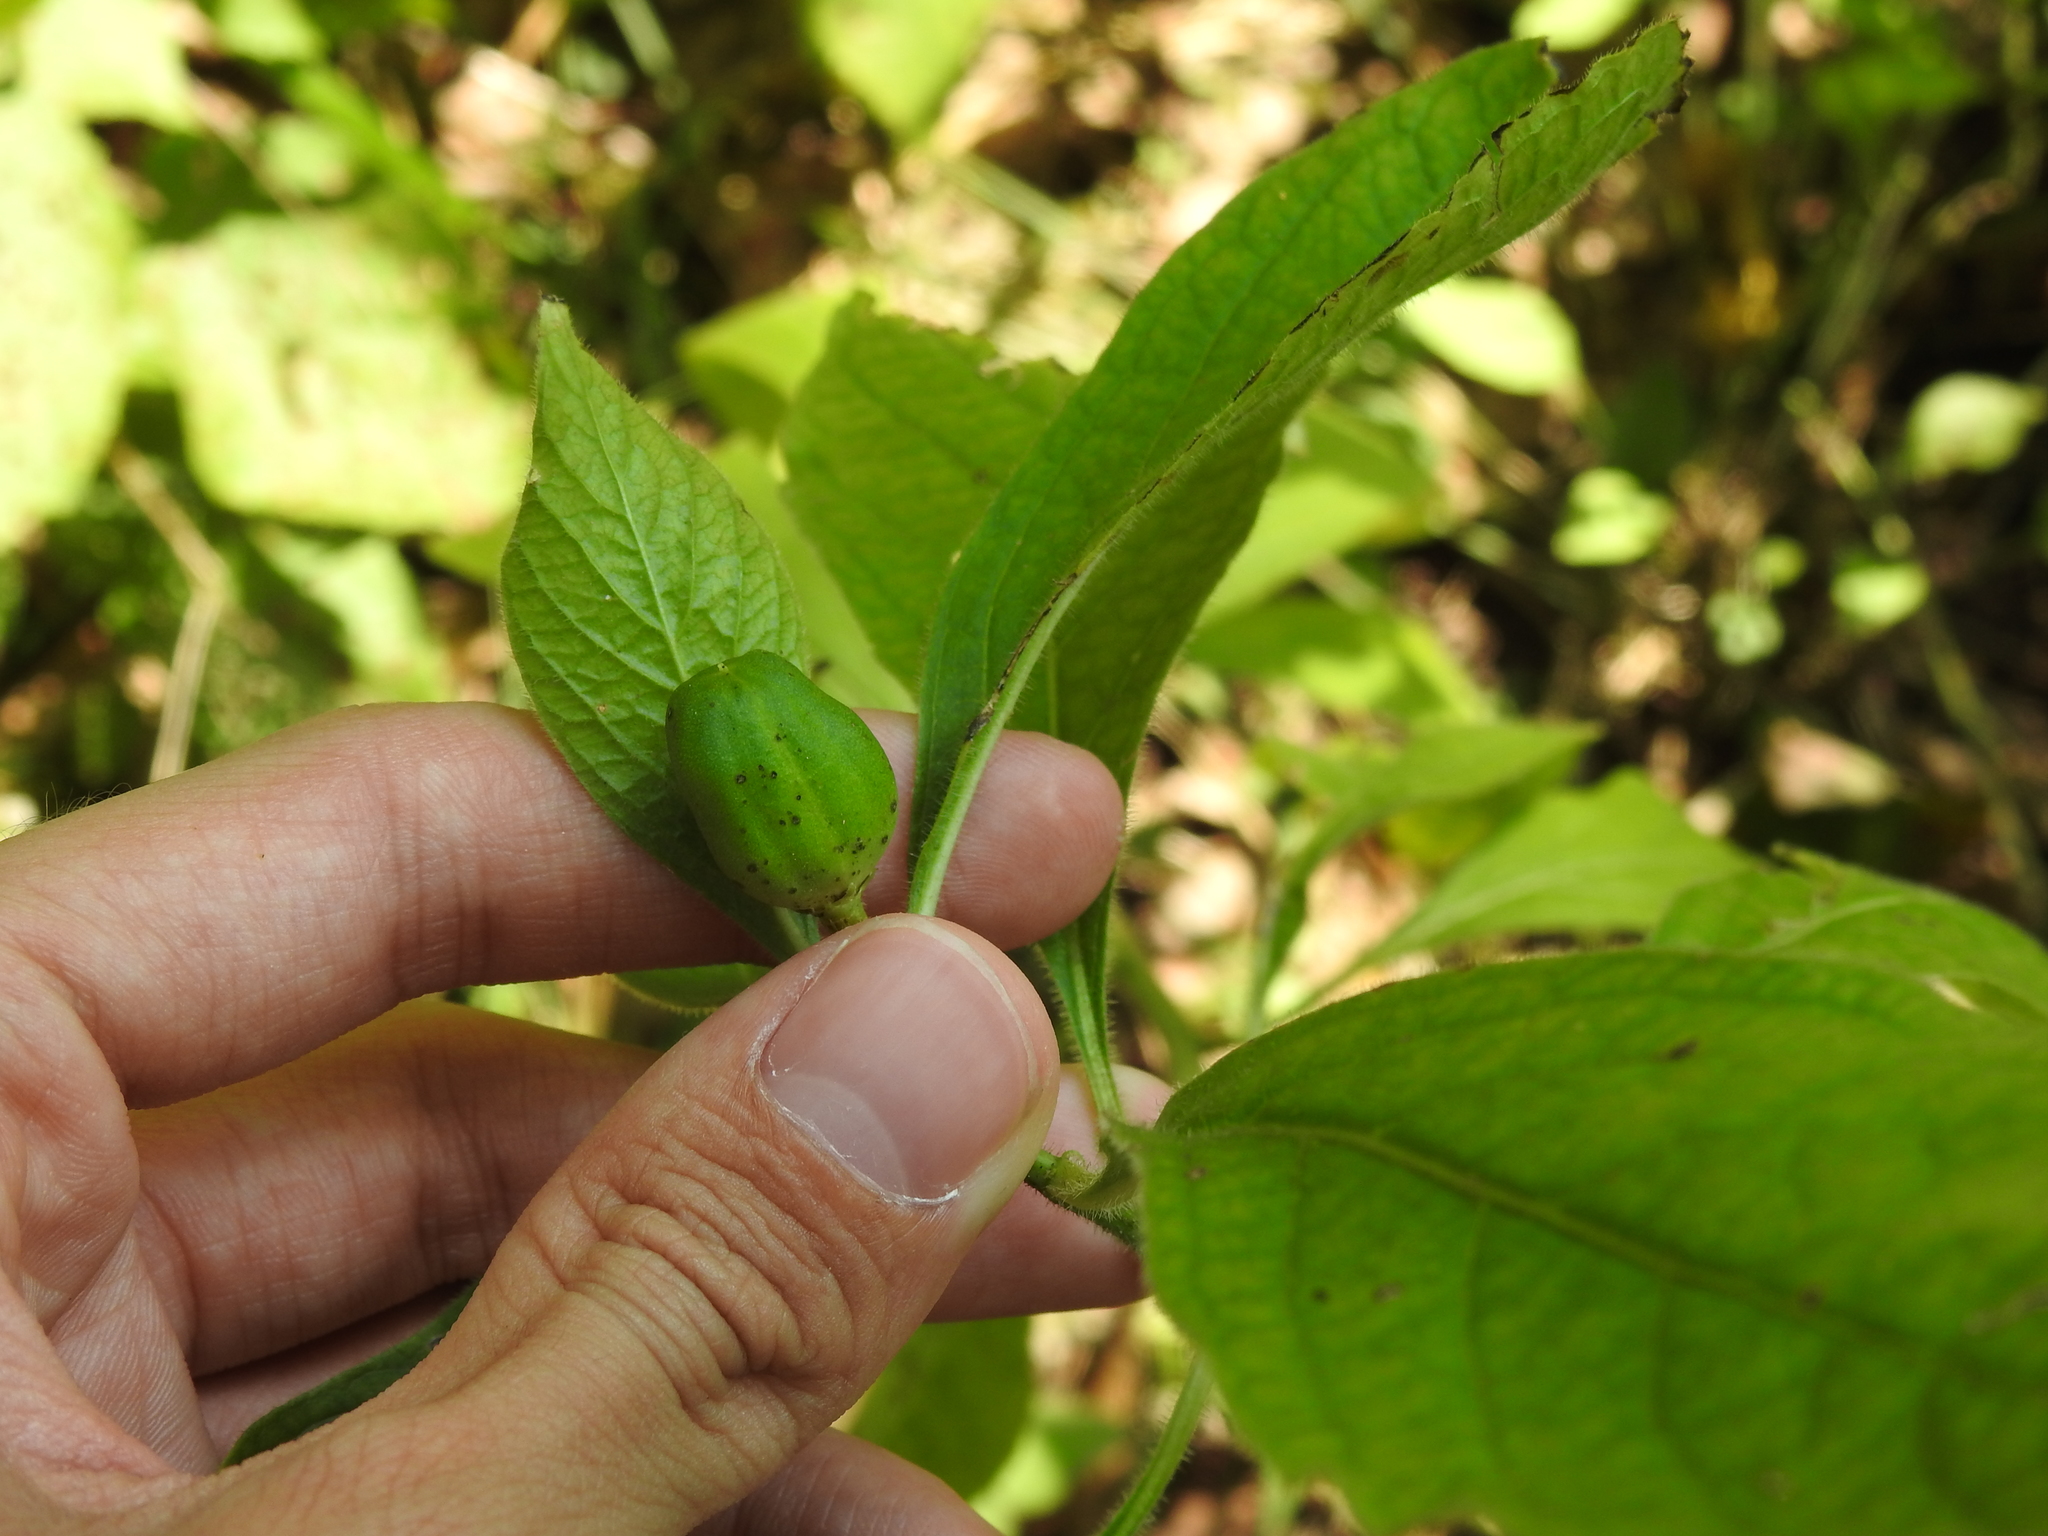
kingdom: Plantae
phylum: Tracheophyta
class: Magnoliopsida
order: Malpighiales
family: Violaceae
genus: Cubelium
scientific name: Cubelium concolor
